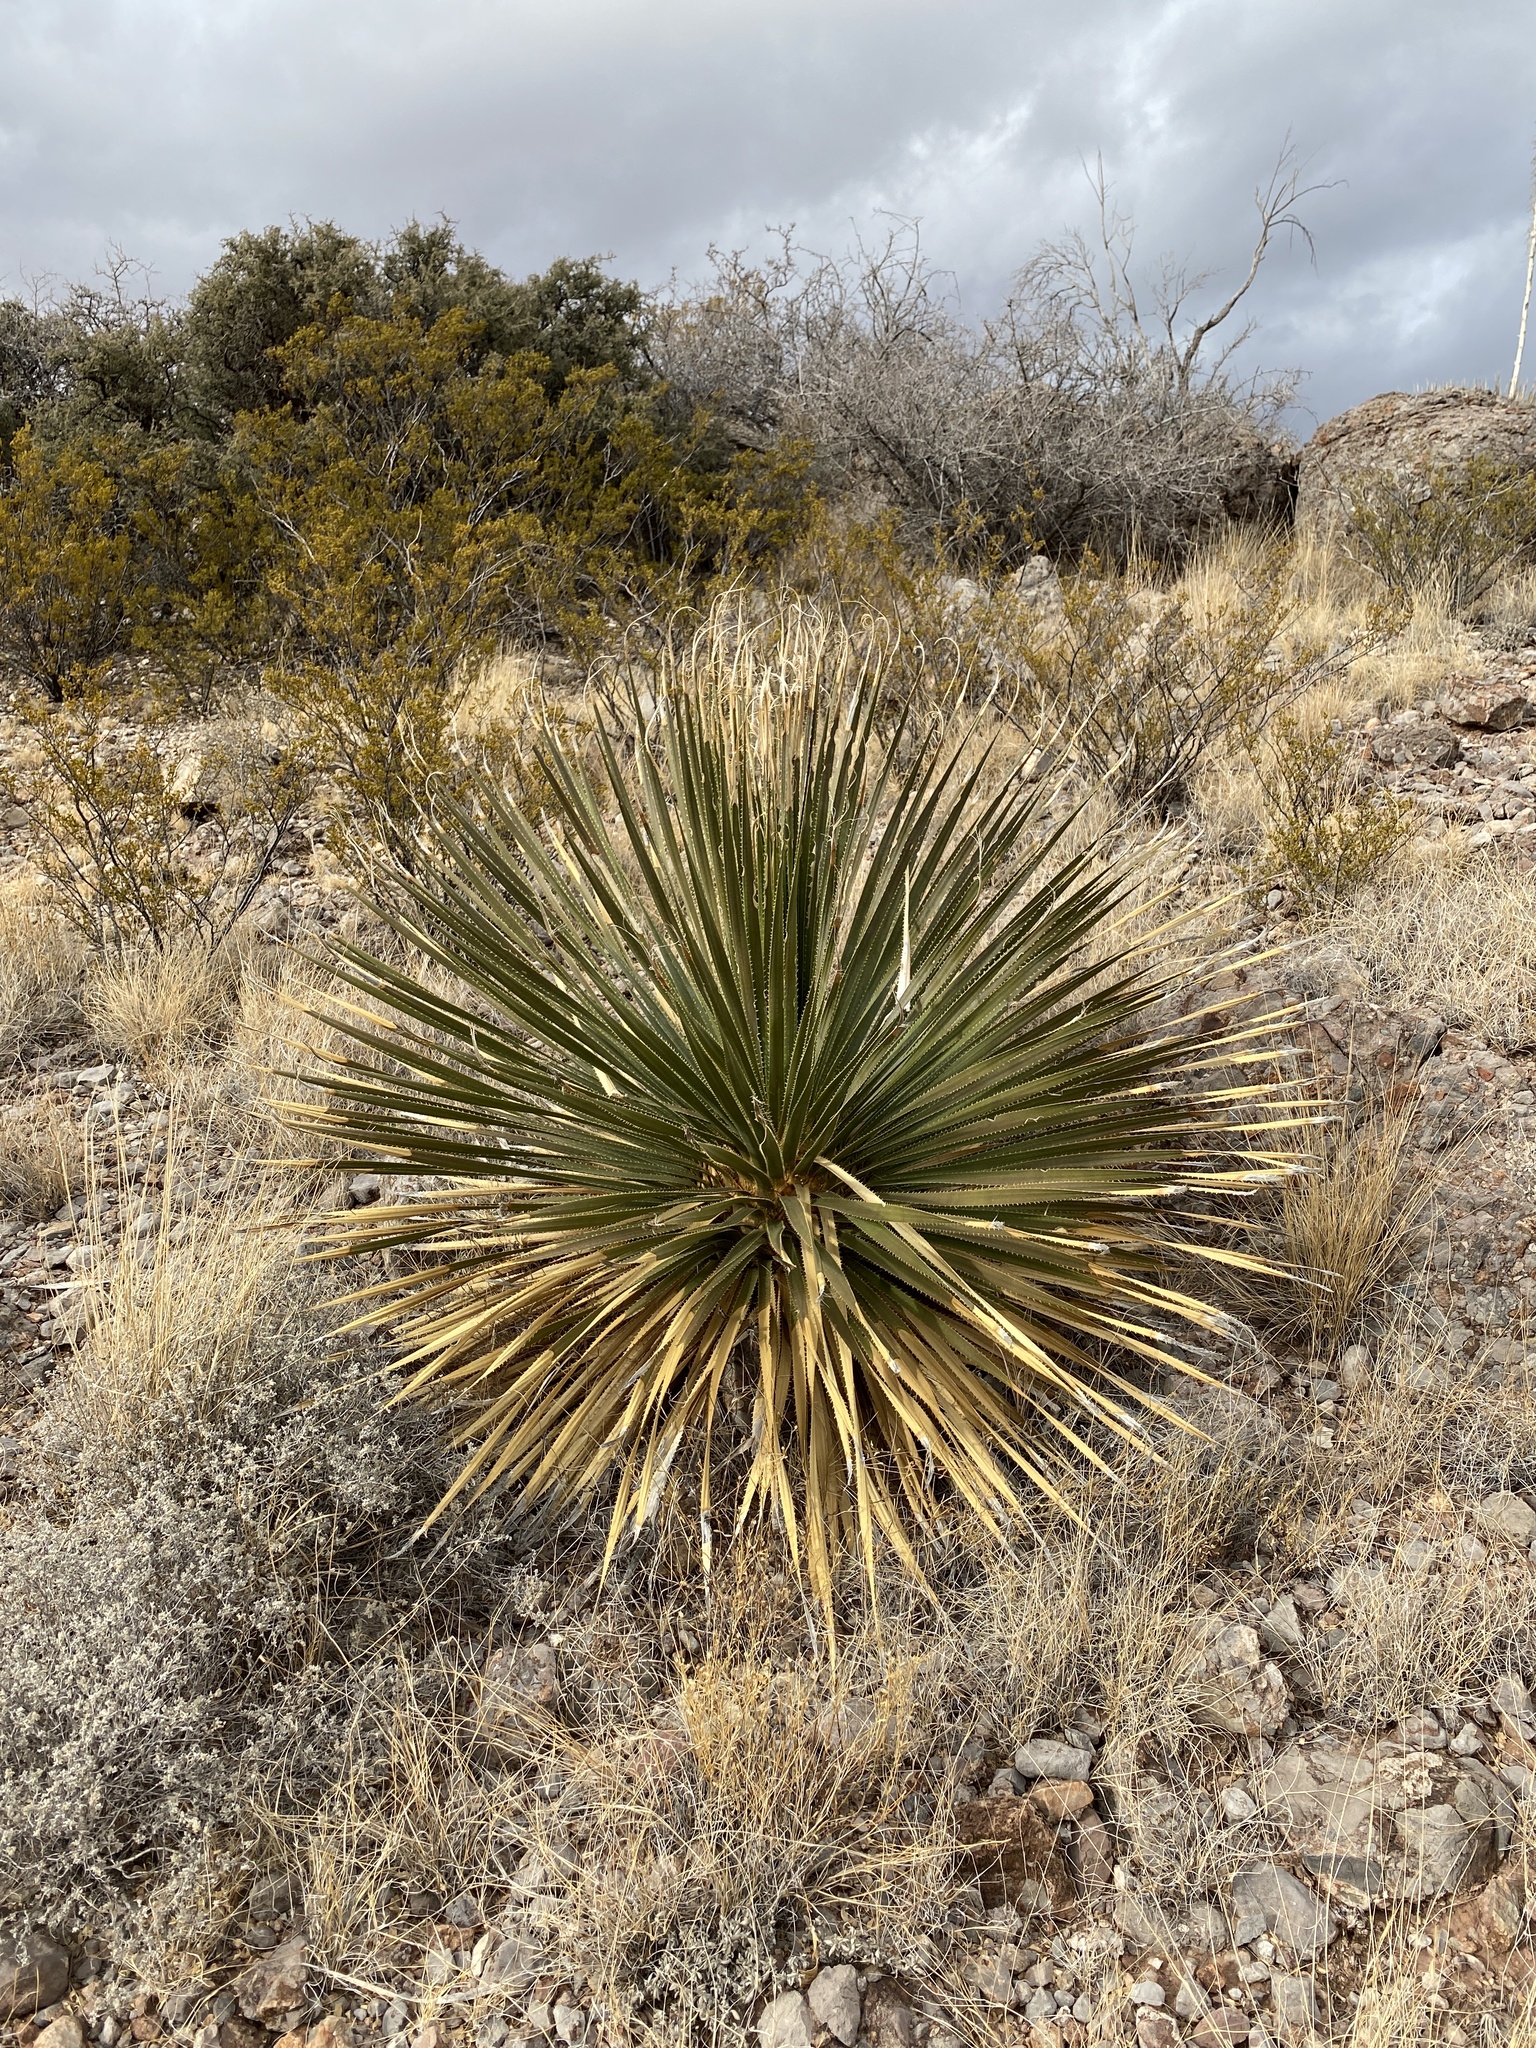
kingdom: Plantae
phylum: Tracheophyta
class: Liliopsida
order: Asparagales
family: Asparagaceae
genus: Dasylirion
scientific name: Dasylirion wheeleri
